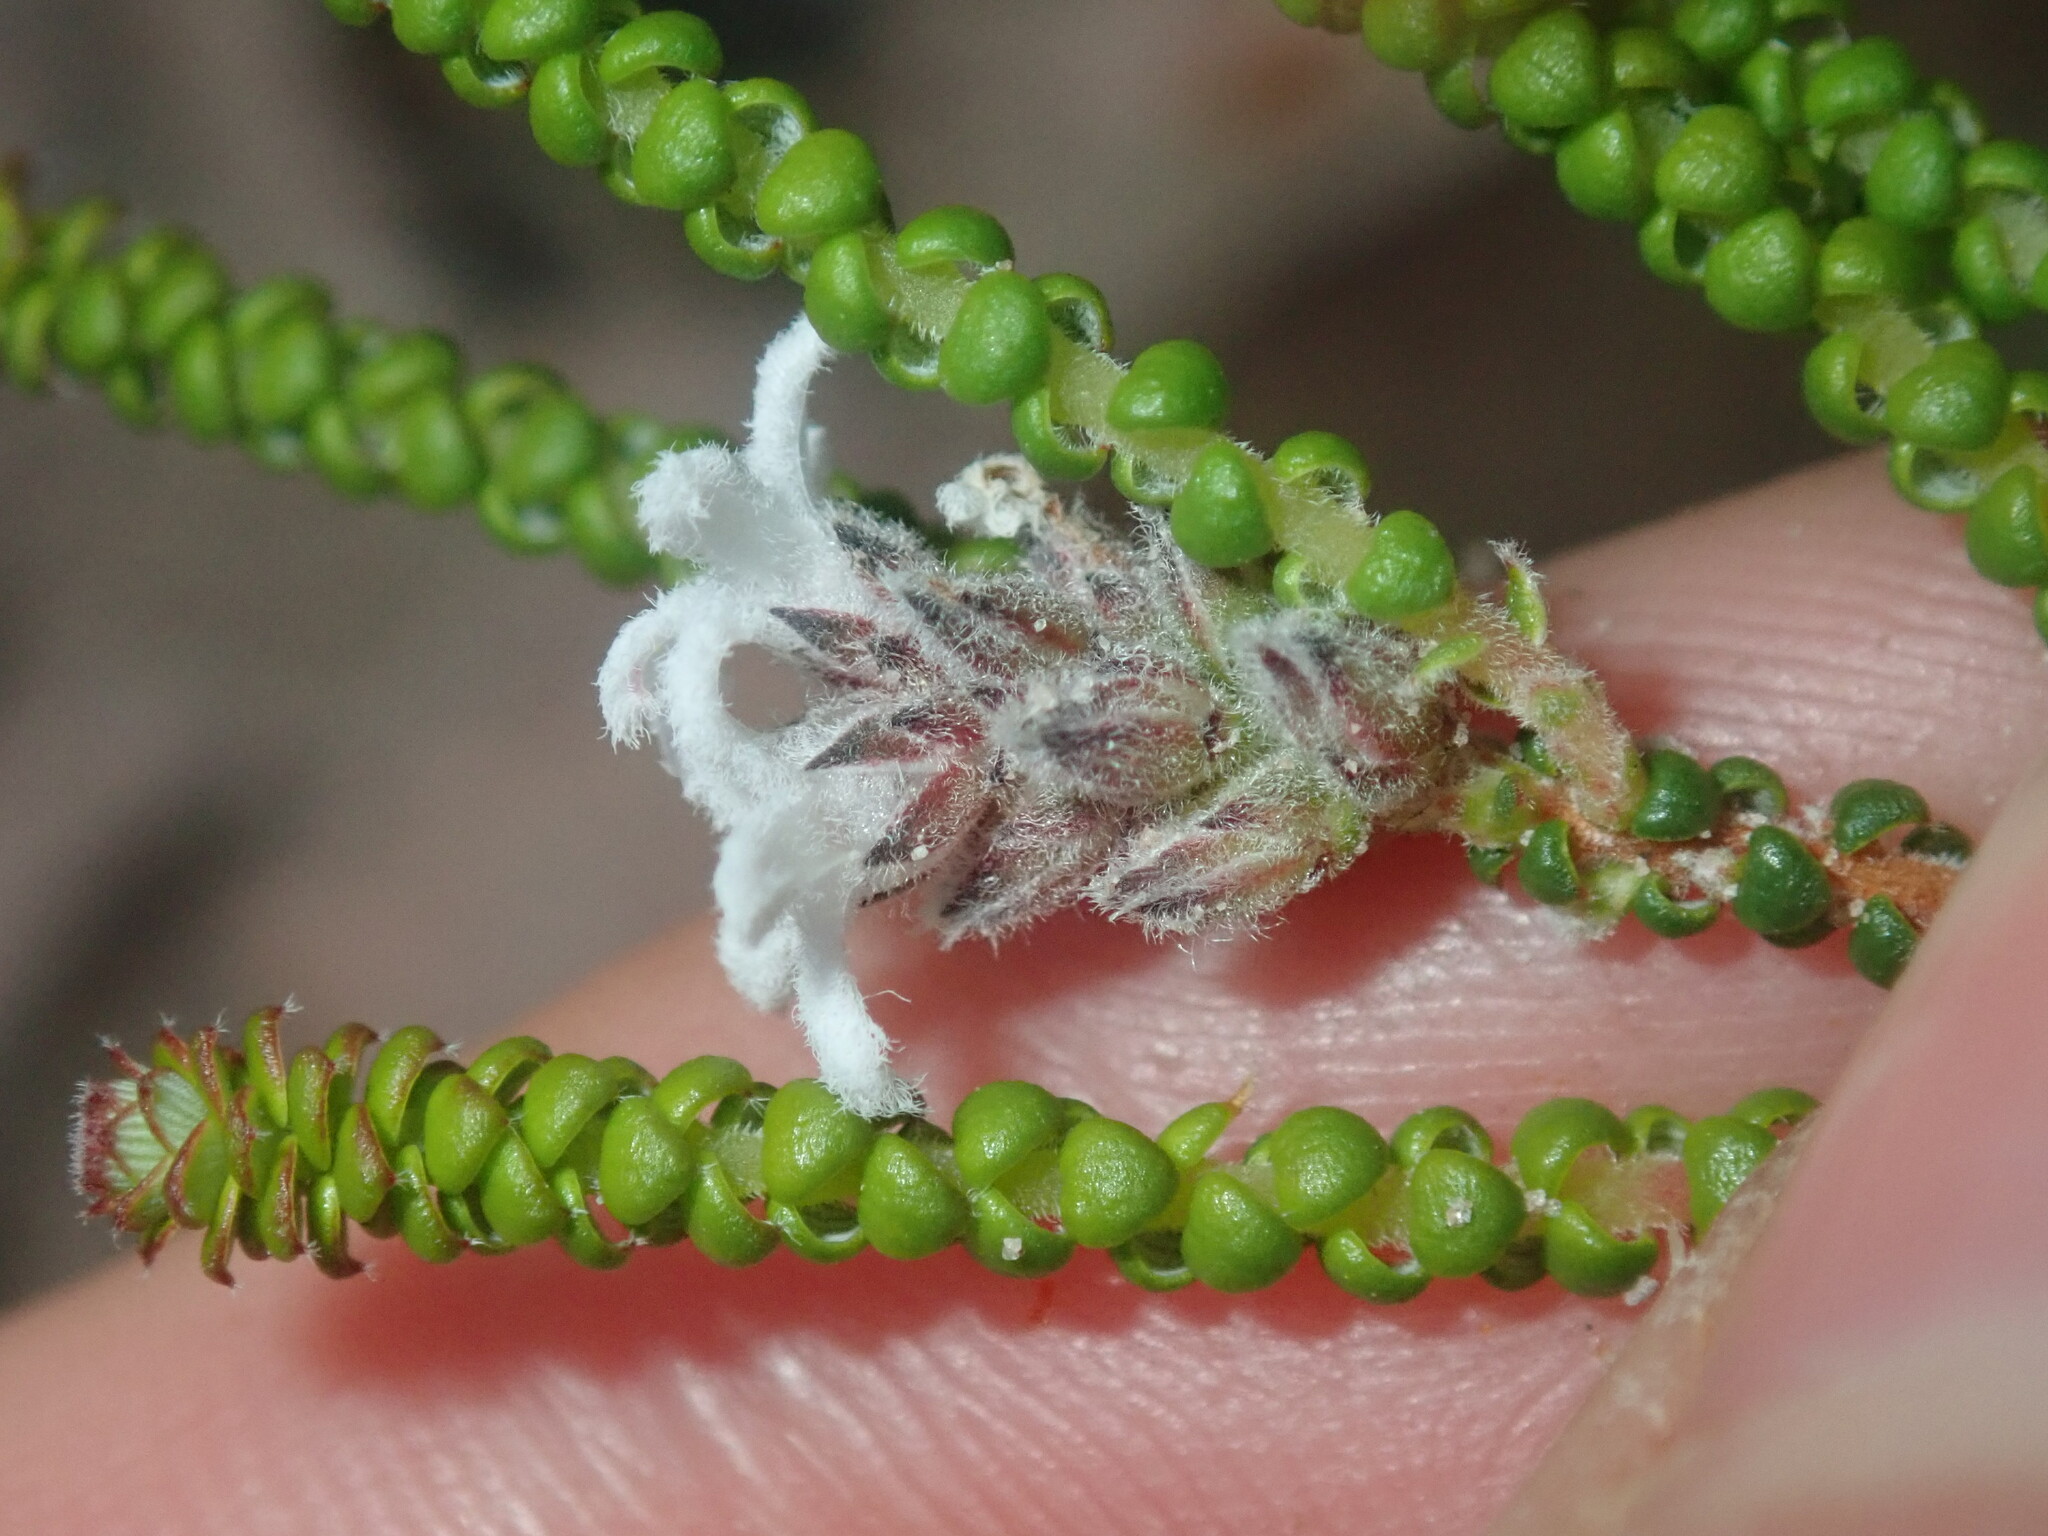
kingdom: Plantae
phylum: Tracheophyta
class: Magnoliopsida
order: Ericales
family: Ericaceae
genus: Leucopogon
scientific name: Leucopogon gibbosus
